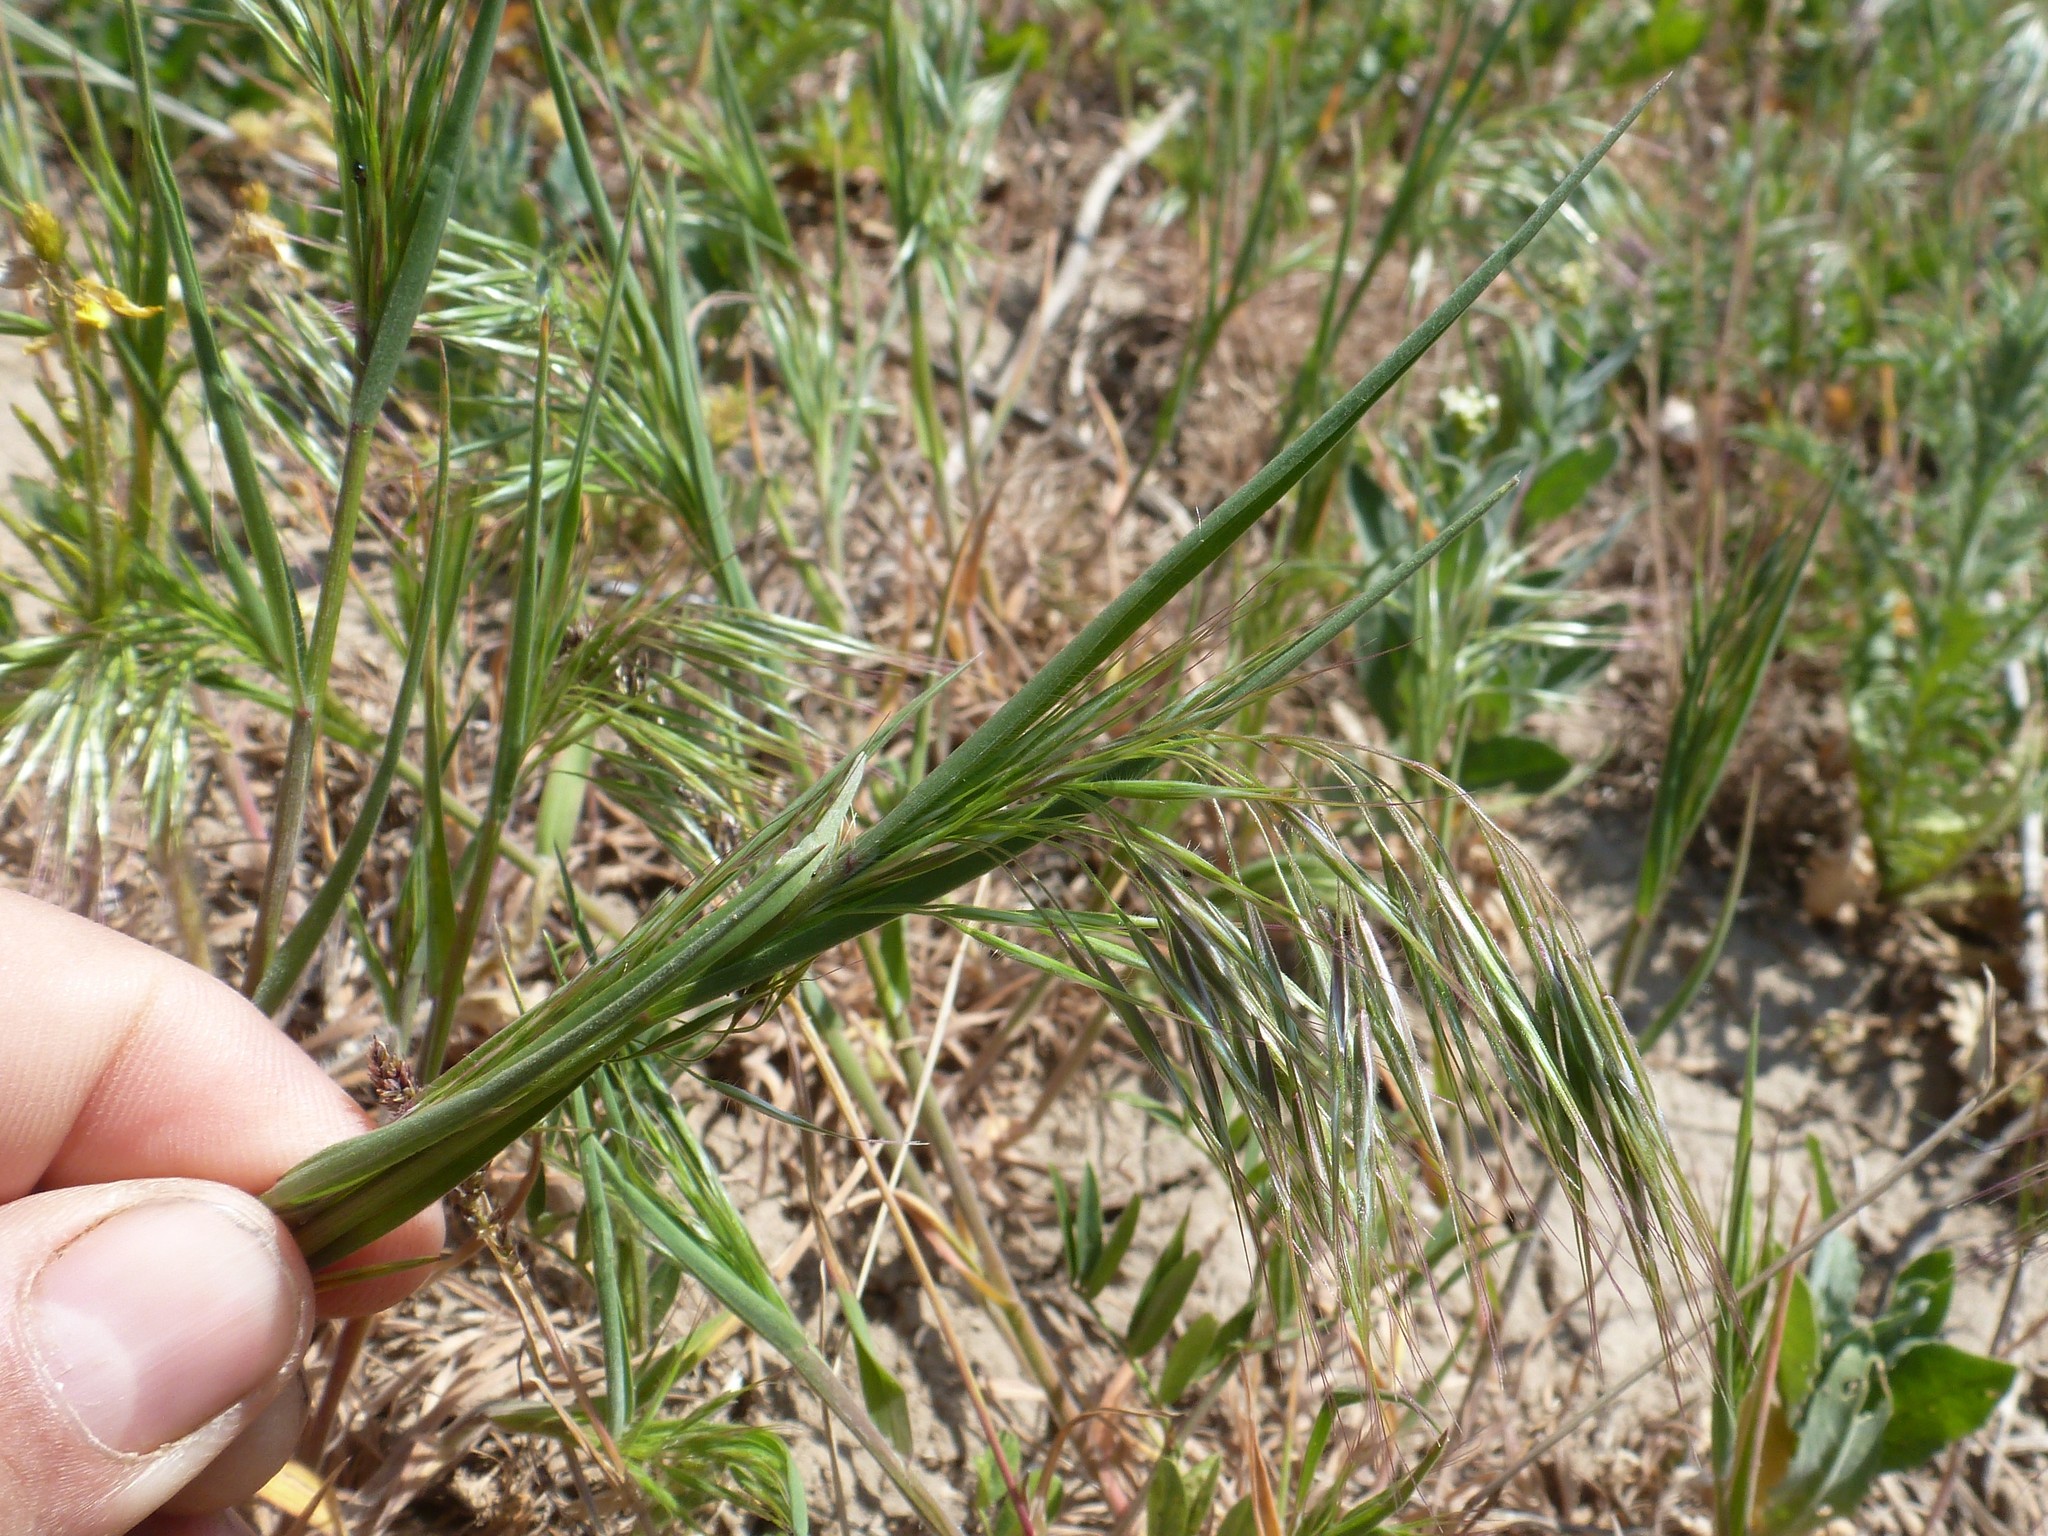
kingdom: Plantae
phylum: Tracheophyta
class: Liliopsida
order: Poales
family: Poaceae
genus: Bromus
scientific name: Bromus tectorum
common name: Cheatgrass
